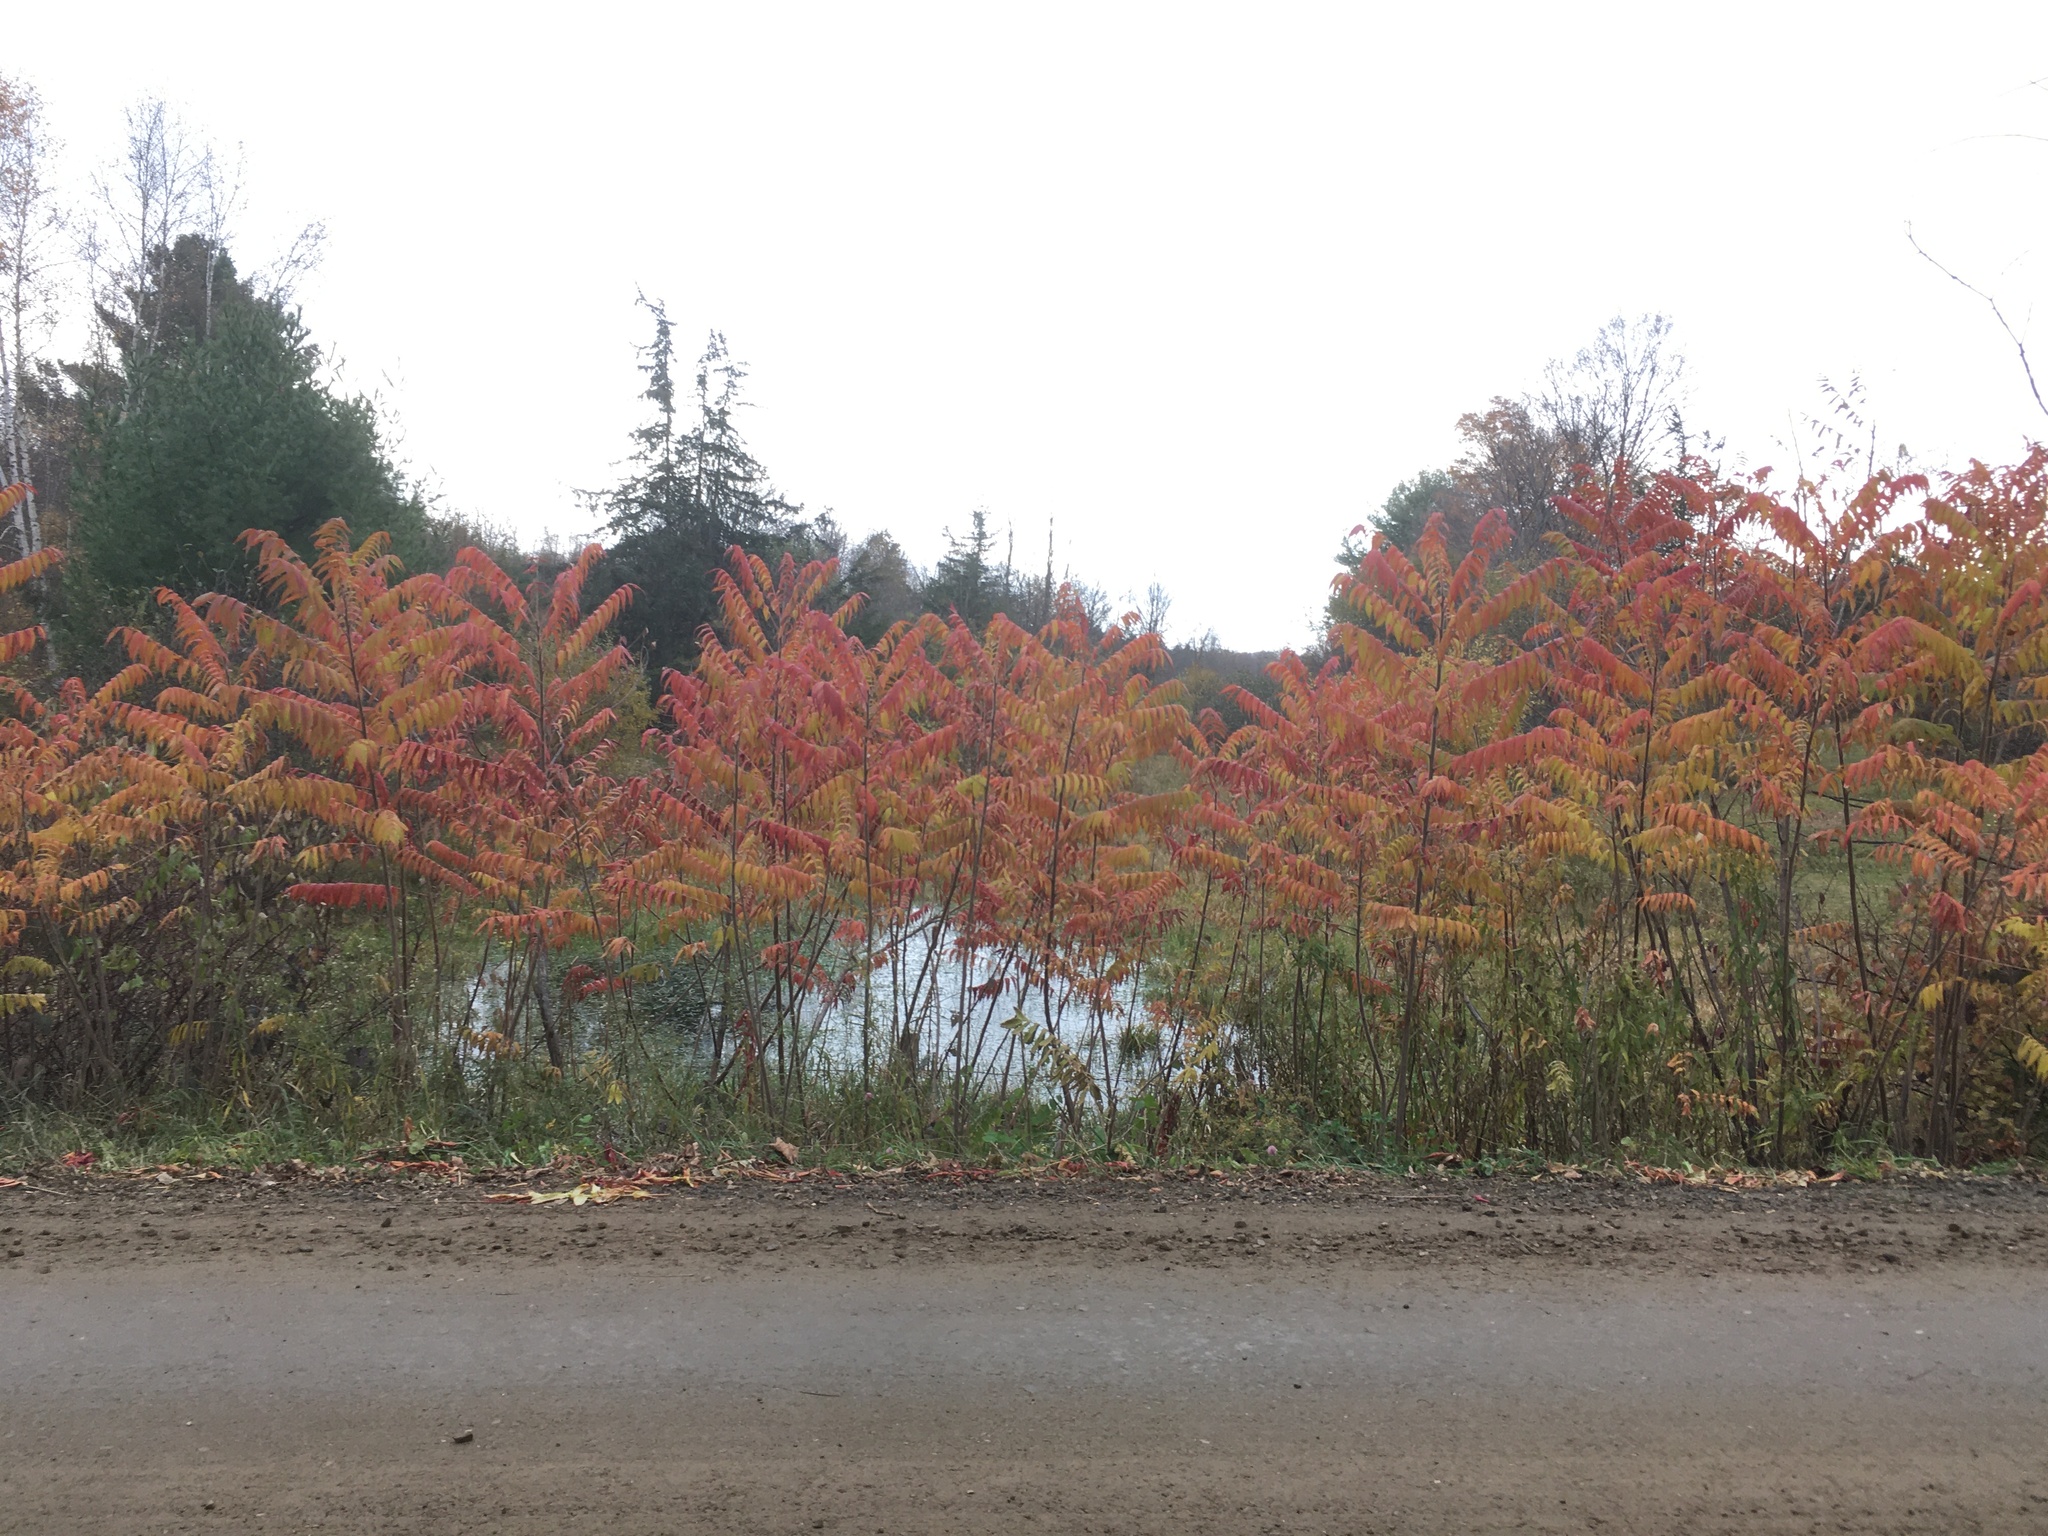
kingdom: Plantae
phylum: Tracheophyta
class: Magnoliopsida
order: Sapindales
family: Anacardiaceae
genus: Rhus
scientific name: Rhus typhina
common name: Staghorn sumac
